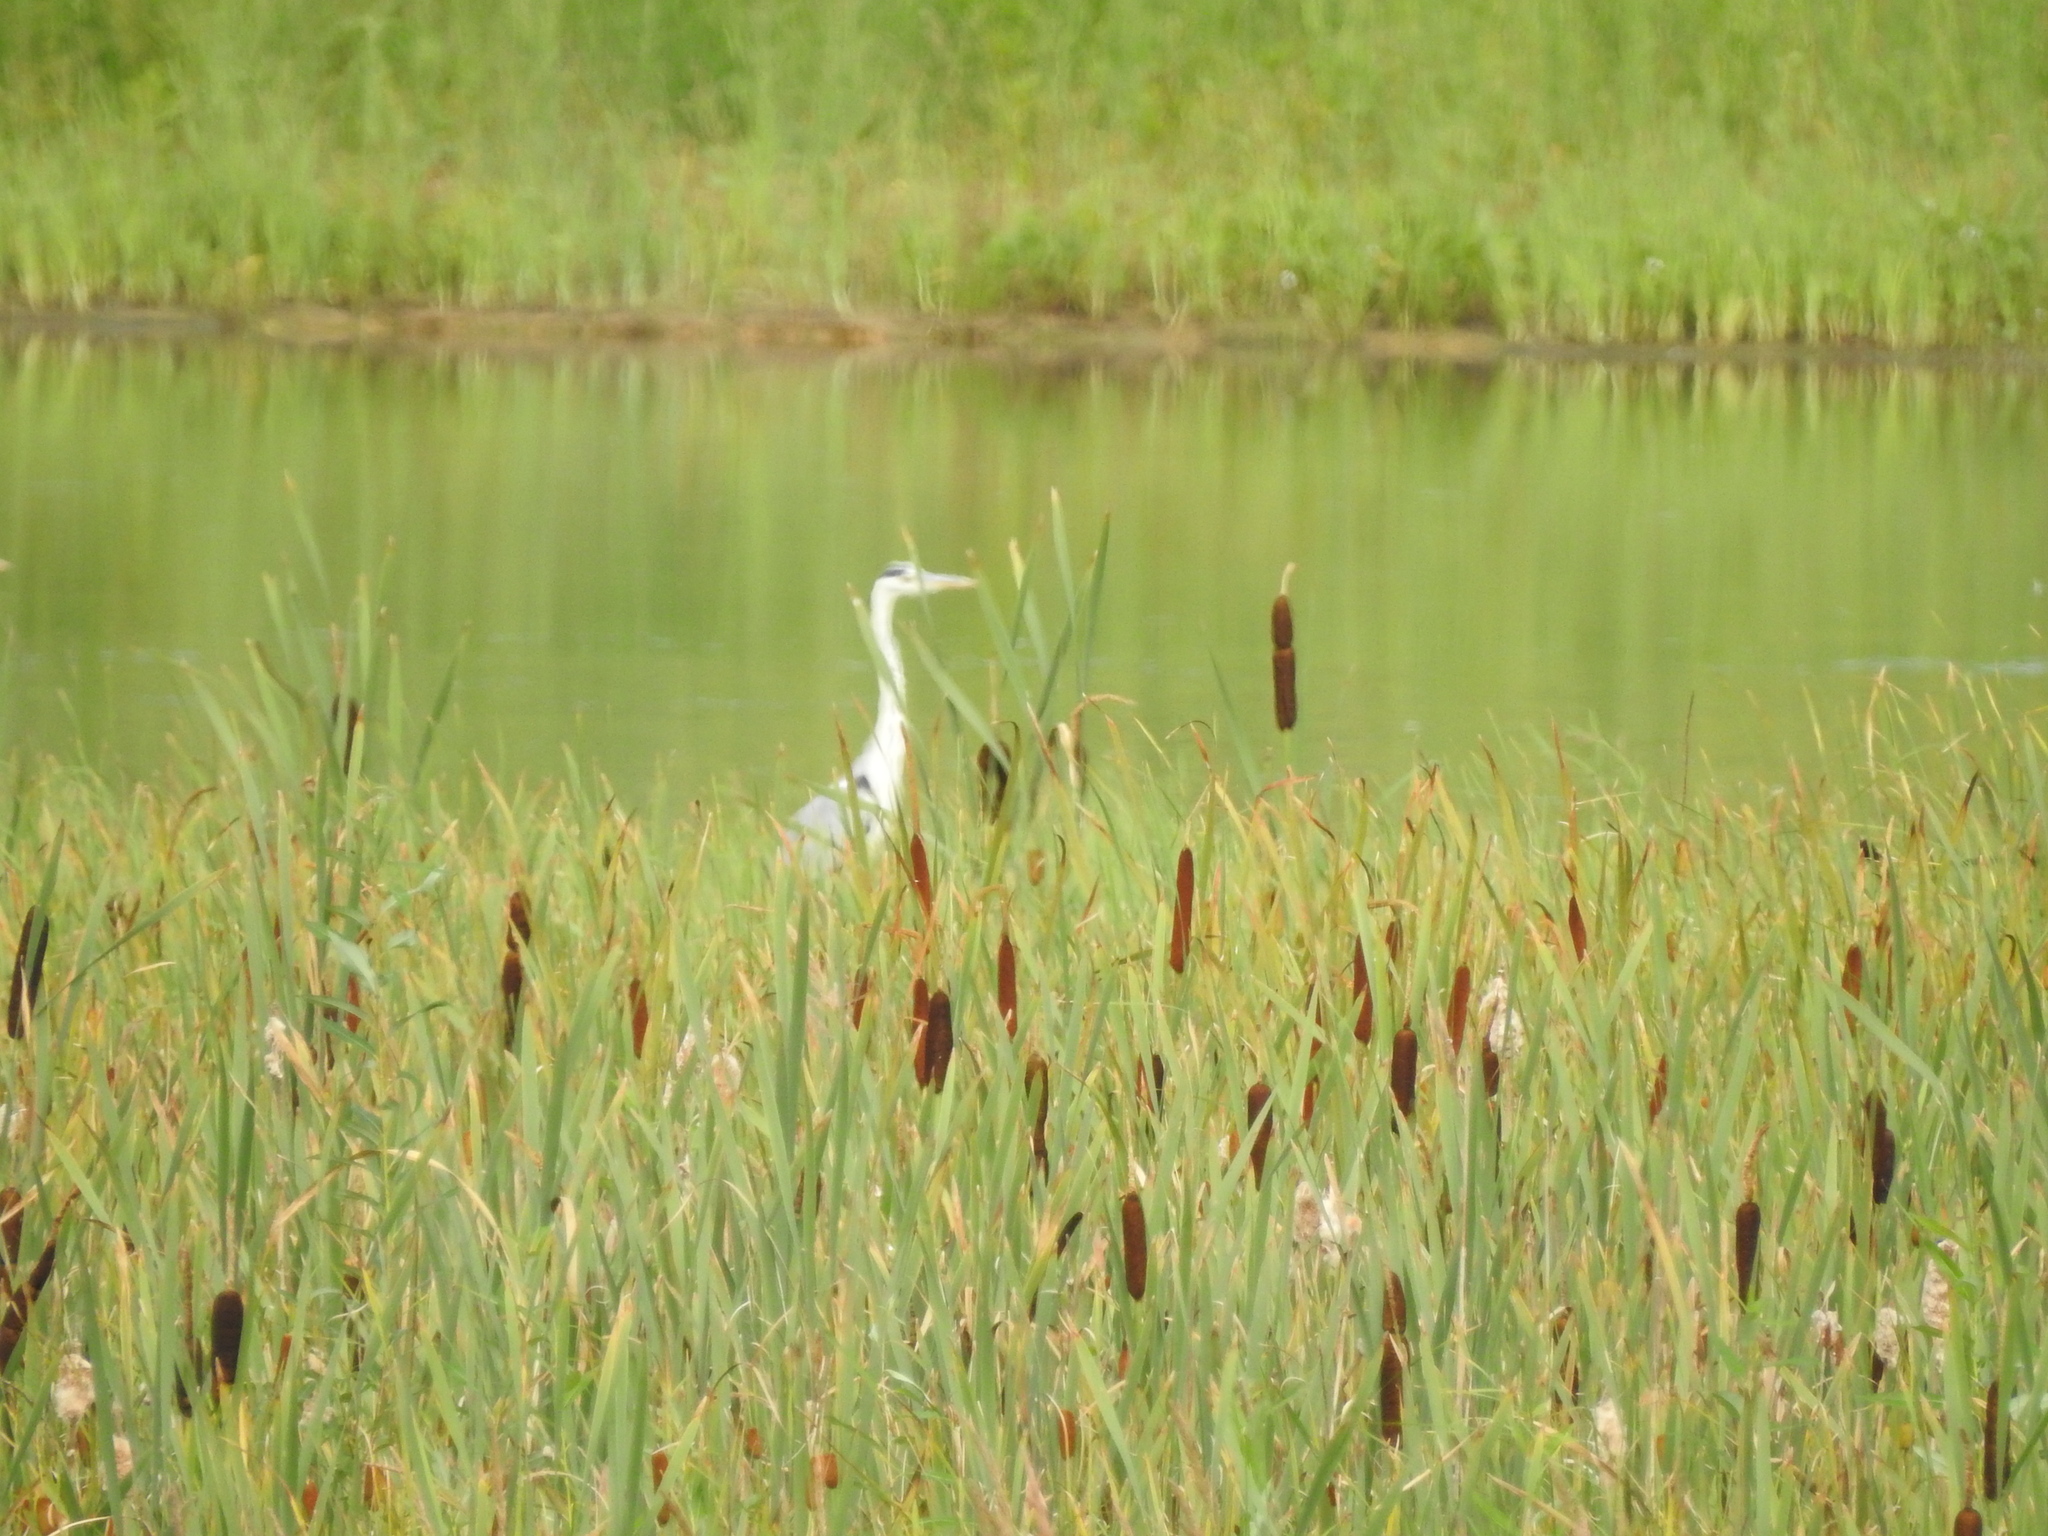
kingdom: Animalia
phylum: Chordata
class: Aves
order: Pelecaniformes
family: Ardeidae
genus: Ardea
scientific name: Ardea cinerea
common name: Grey heron
